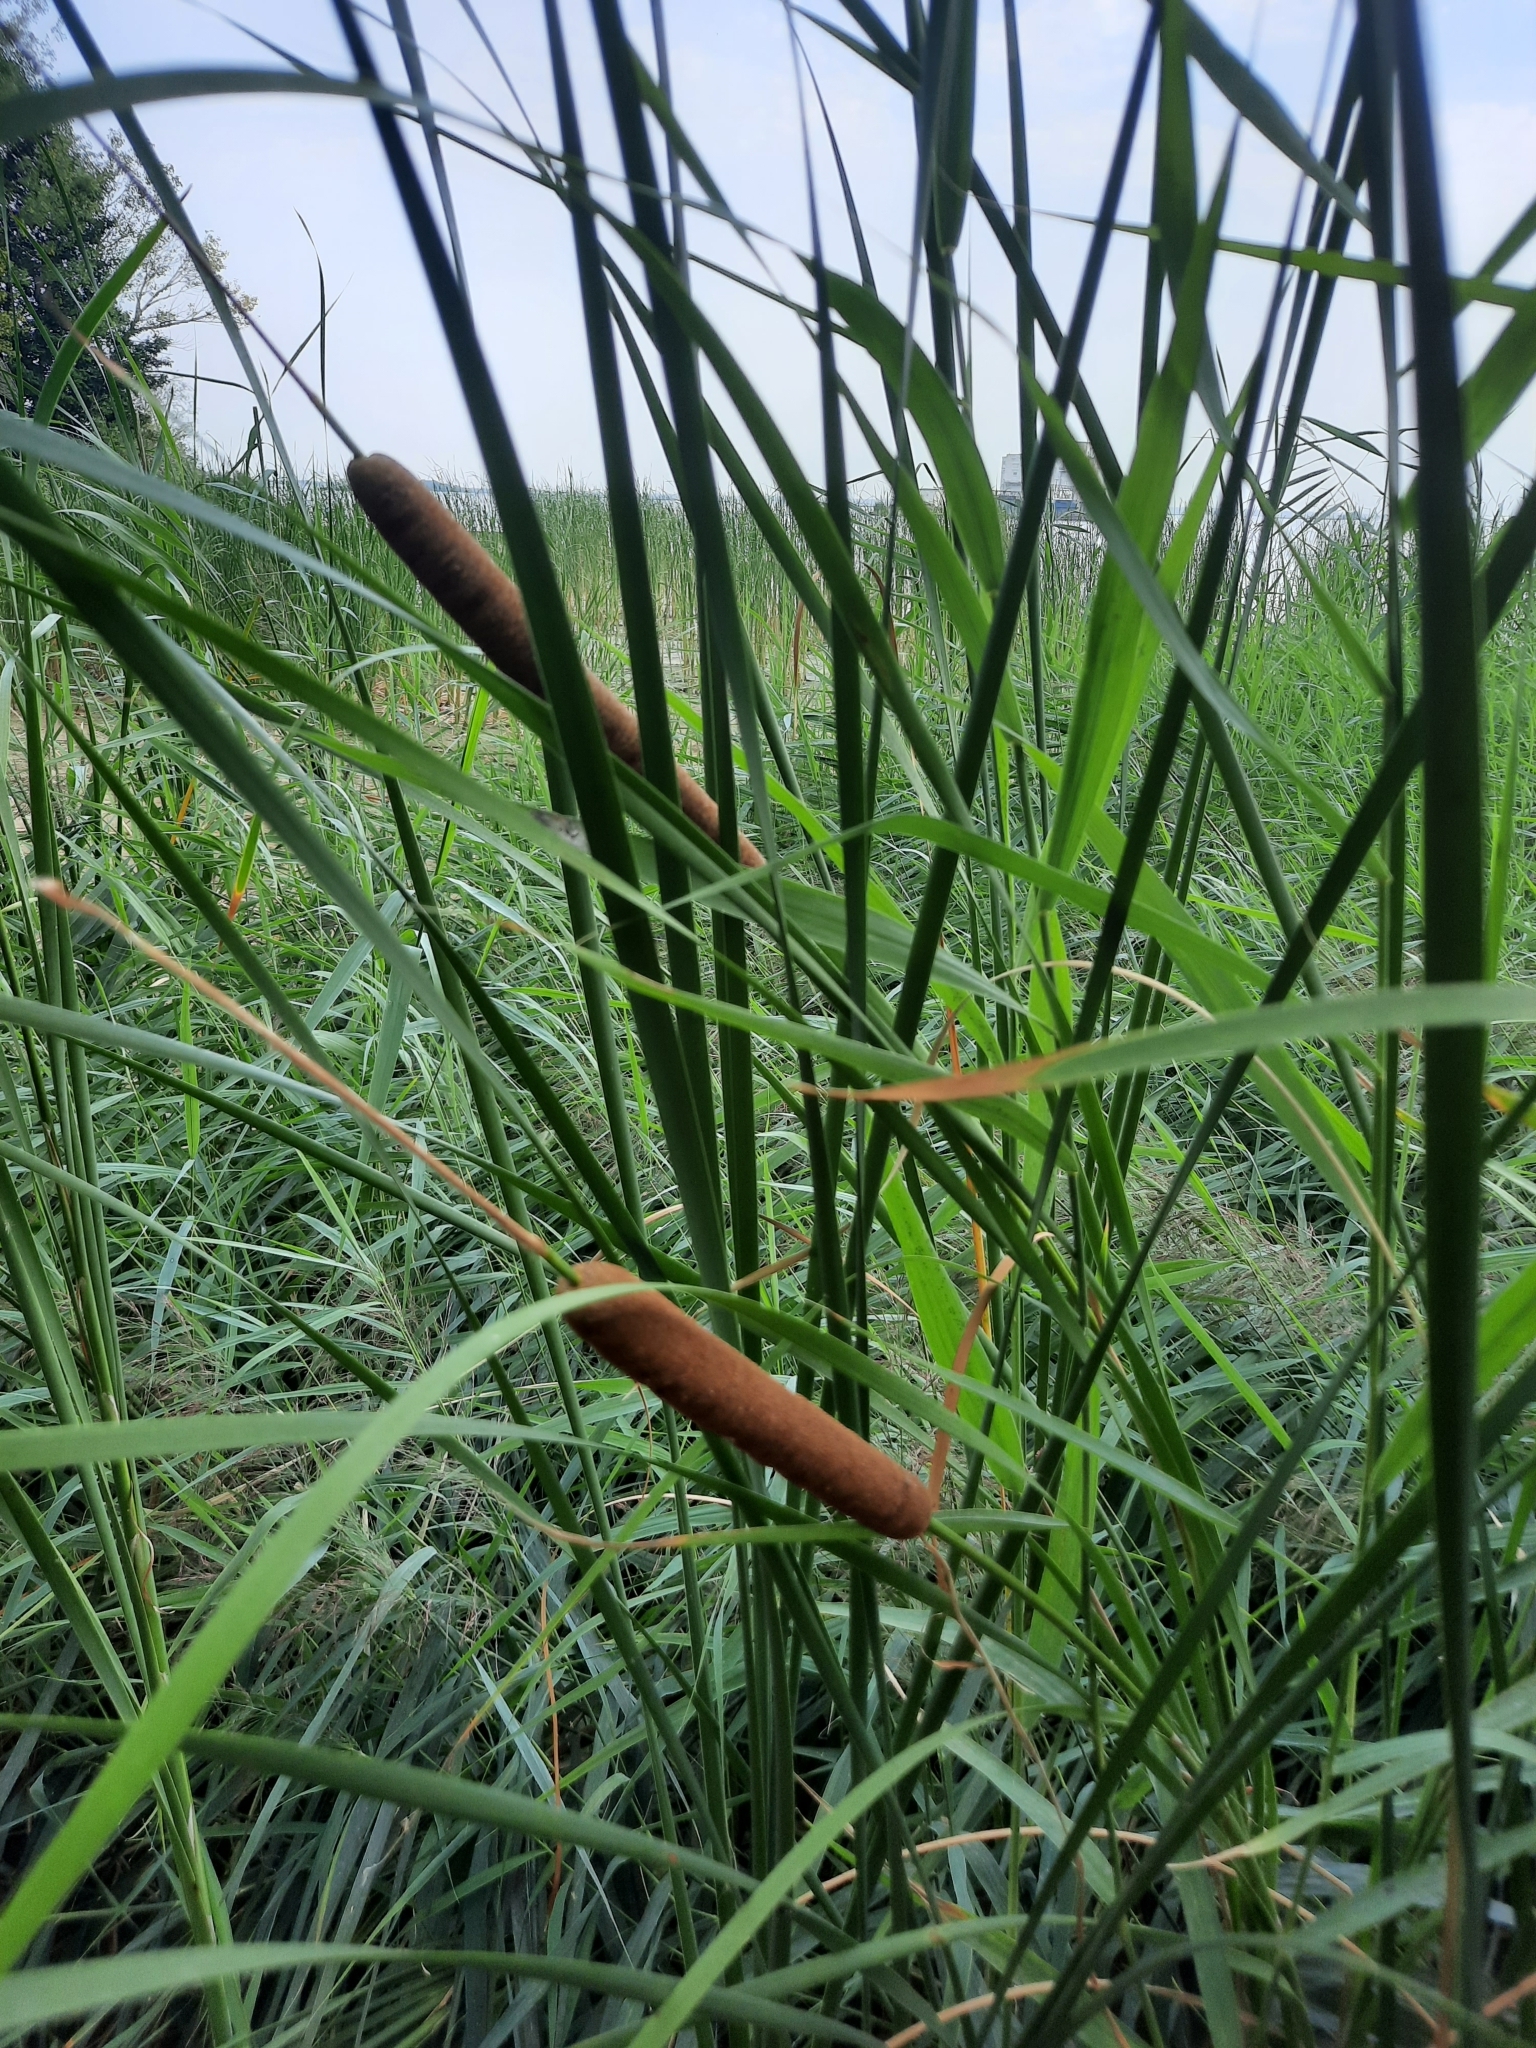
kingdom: Plantae
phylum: Tracheophyta
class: Liliopsida
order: Poales
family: Typhaceae
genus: Typha
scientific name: Typha angustifolia
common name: Lesser bulrush
